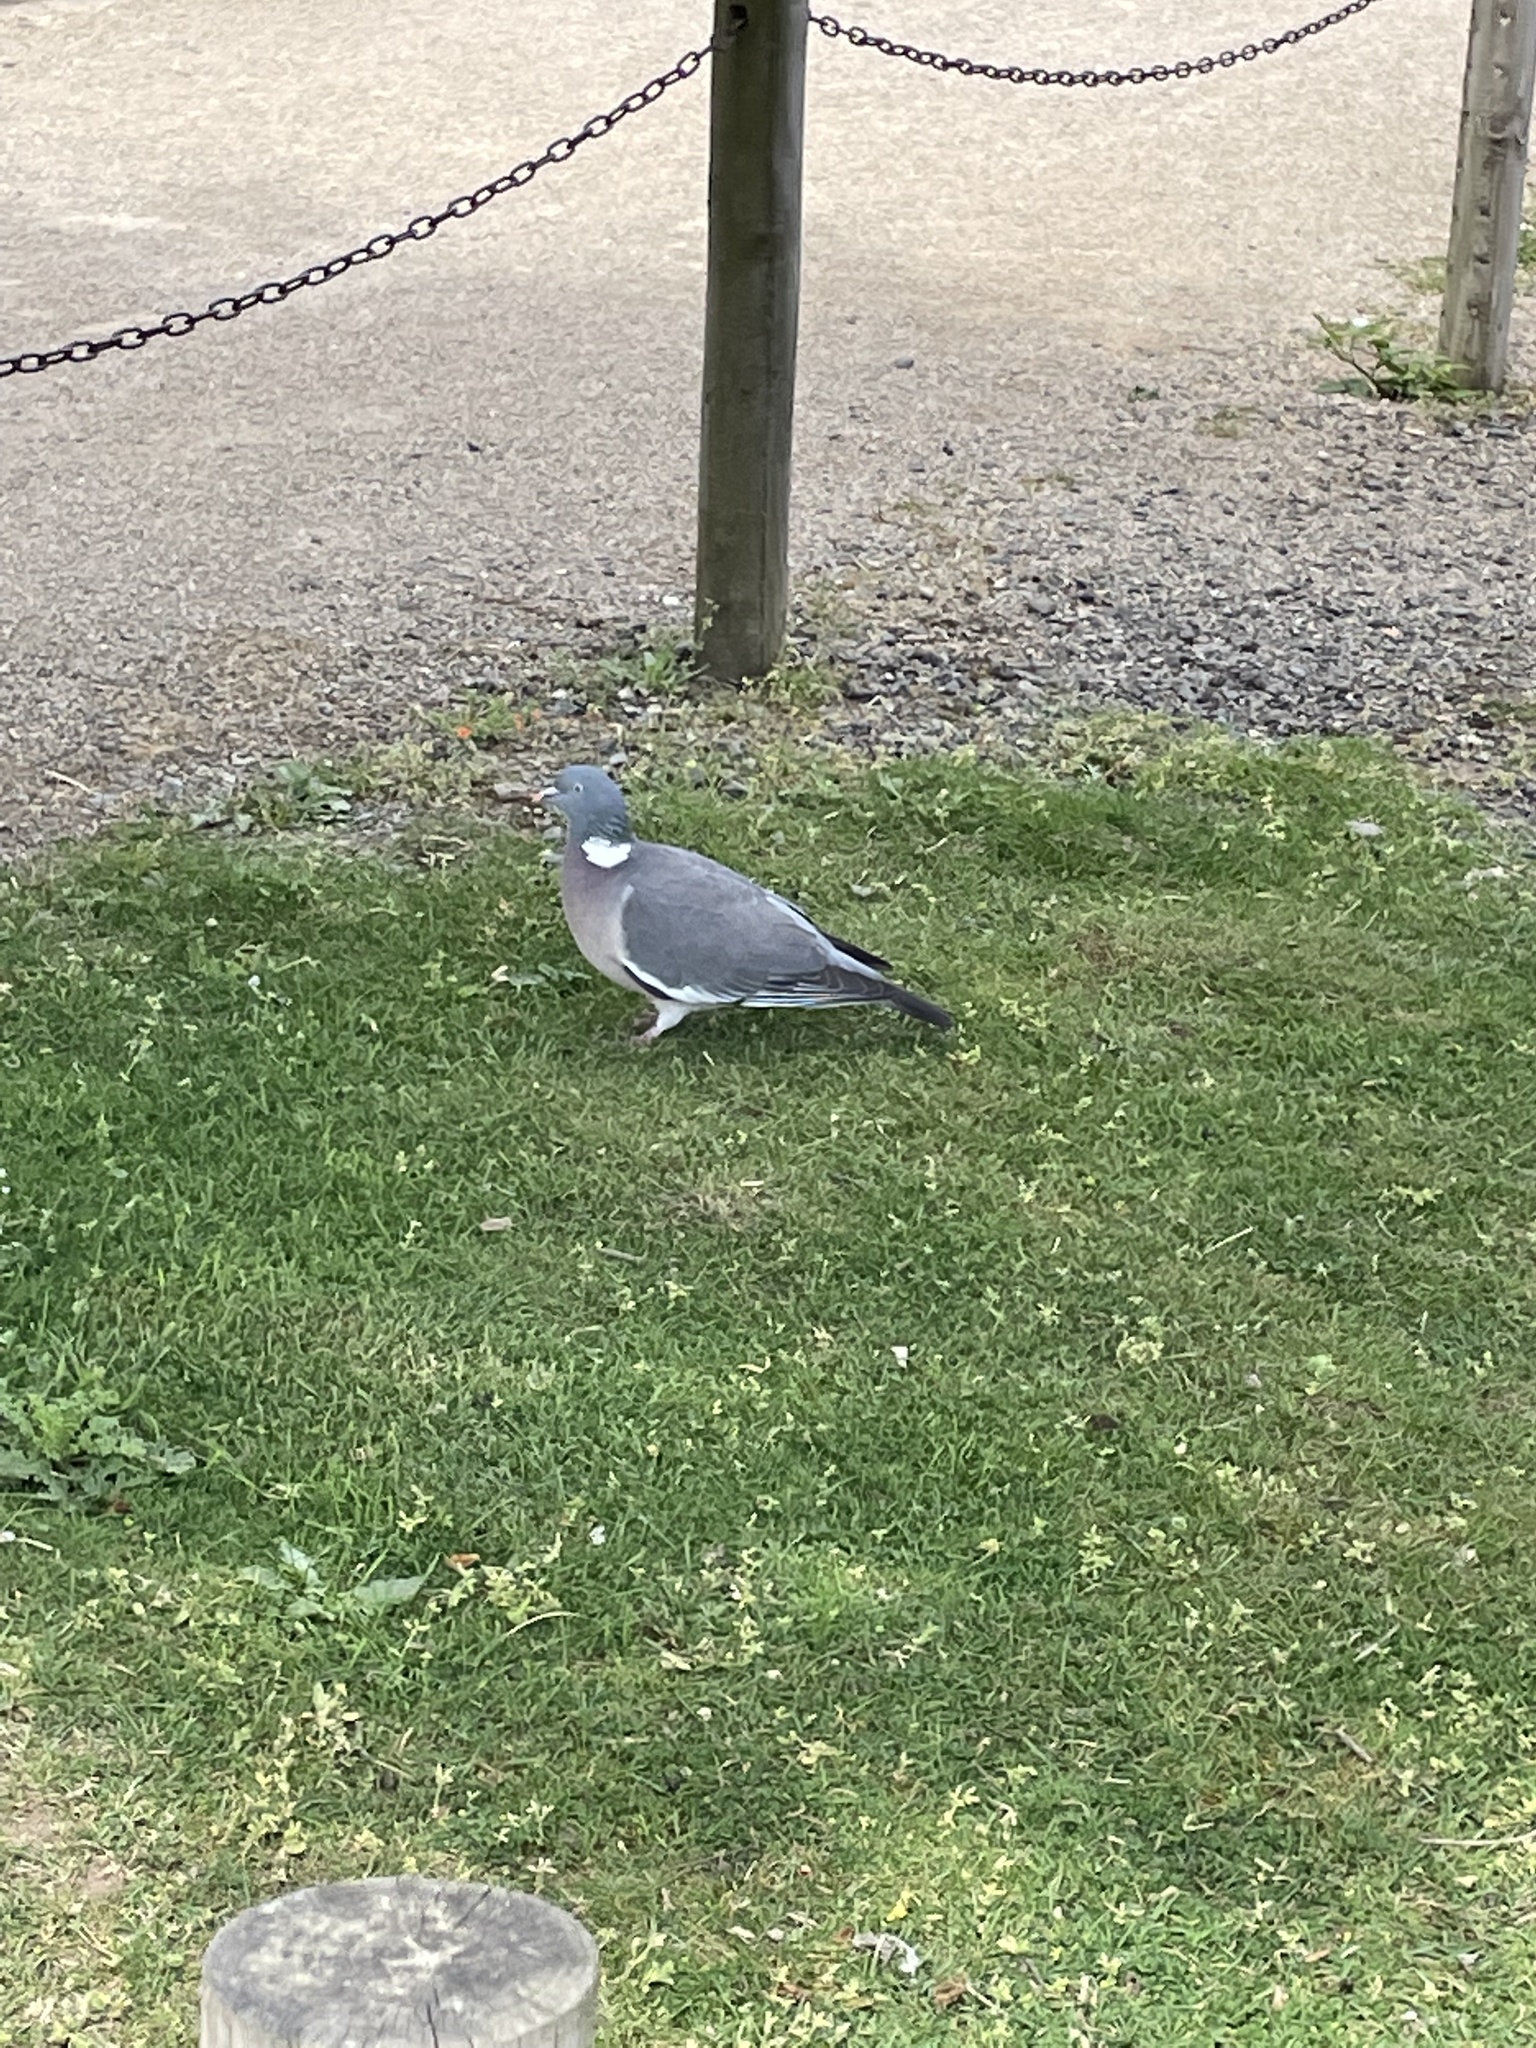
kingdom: Animalia
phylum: Chordata
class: Aves
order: Columbiformes
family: Columbidae
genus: Columba
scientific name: Columba palumbus
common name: Common wood pigeon
